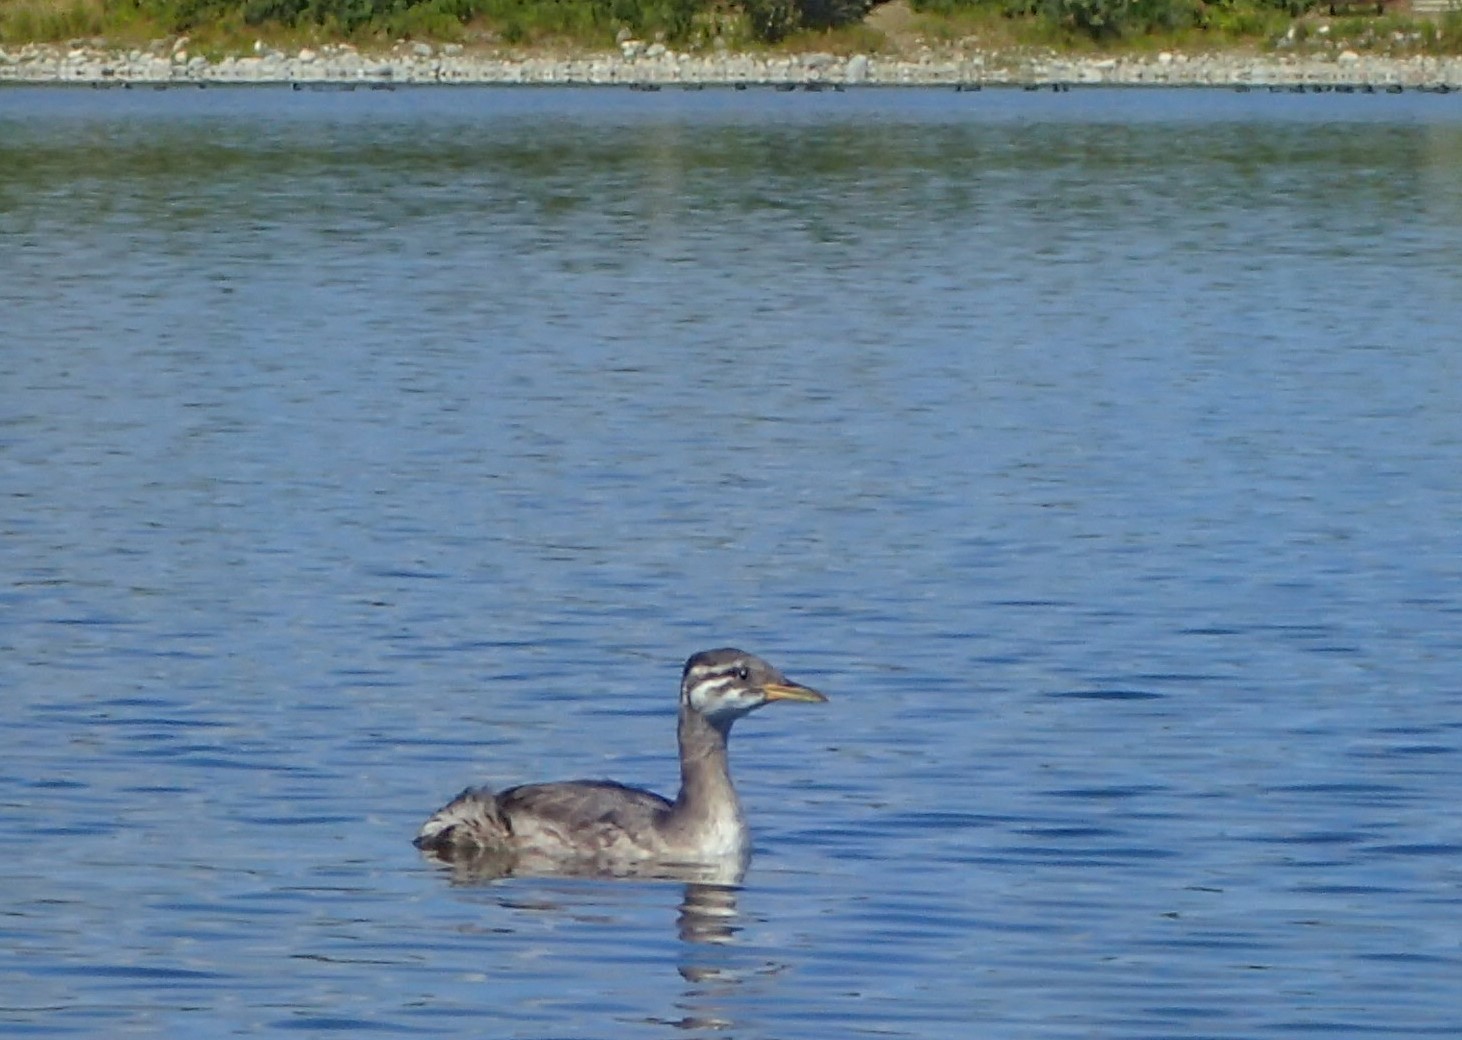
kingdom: Animalia
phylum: Chordata
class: Aves
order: Podicipediformes
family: Podicipedidae
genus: Podiceps
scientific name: Podiceps grisegena
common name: Red-necked grebe
